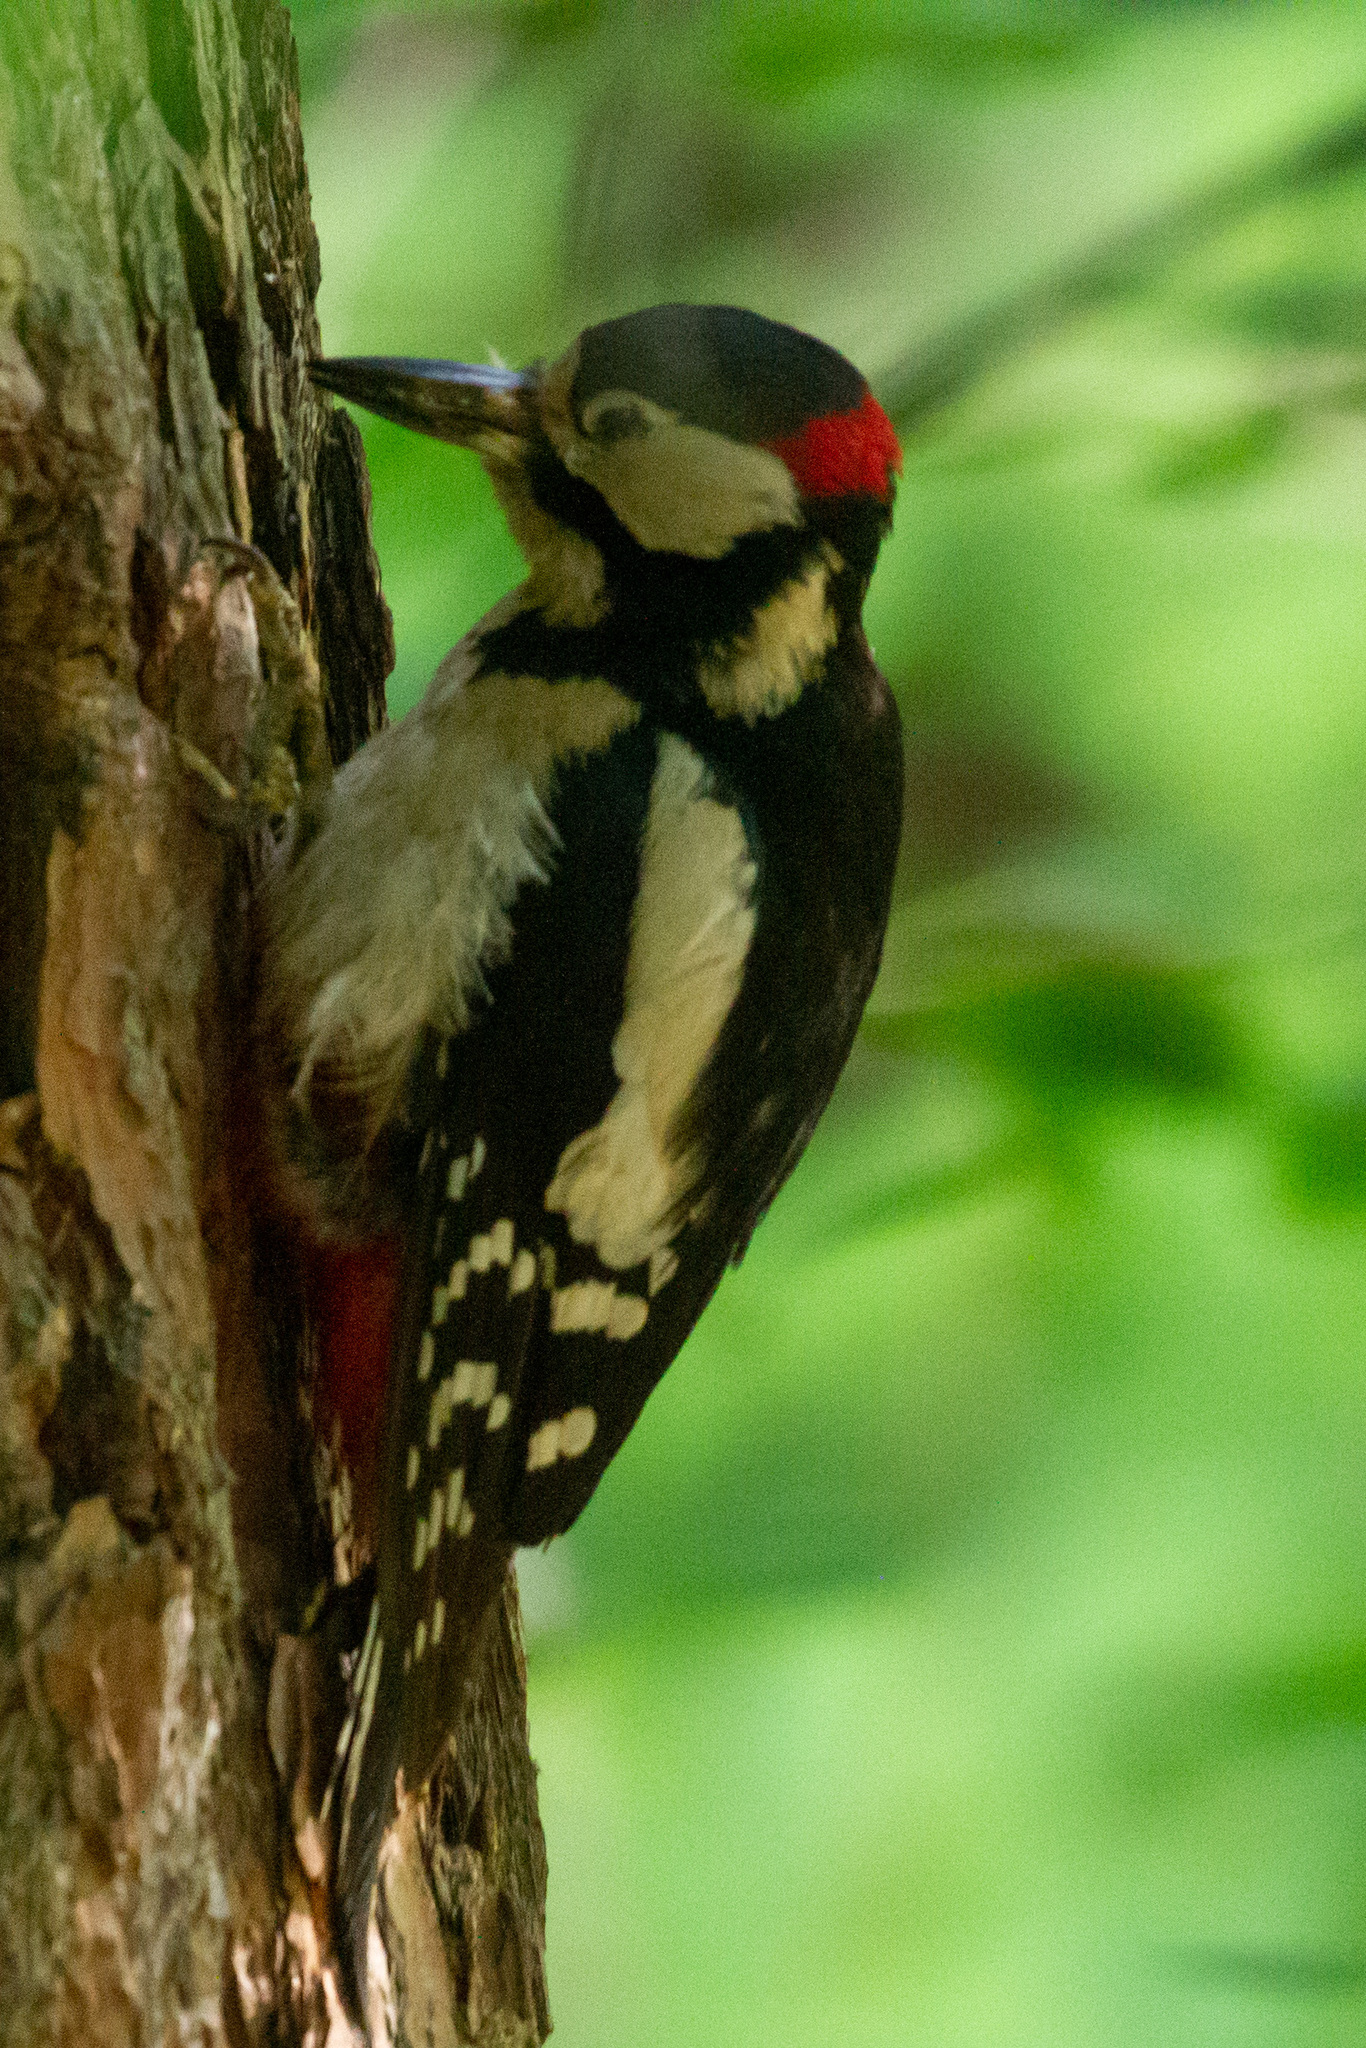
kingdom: Animalia
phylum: Chordata
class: Aves
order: Piciformes
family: Picidae
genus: Dendrocopos
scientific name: Dendrocopos major
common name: Great spotted woodpecker
